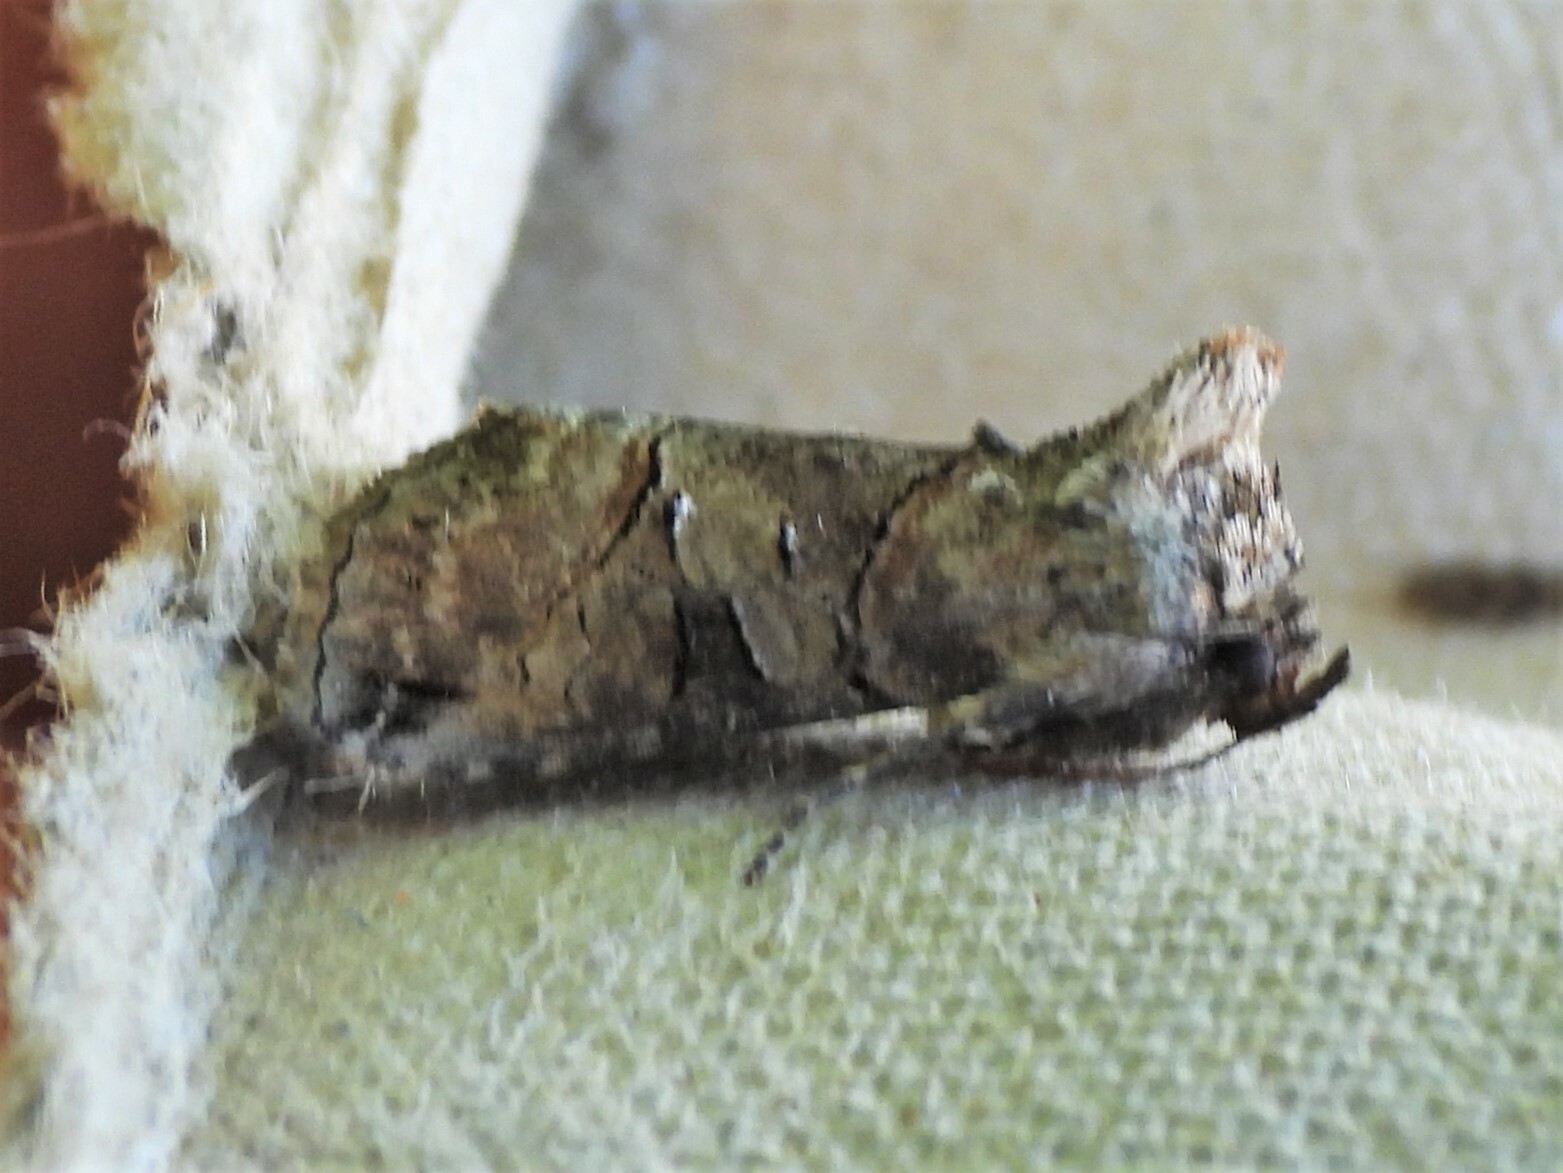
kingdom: Animalia
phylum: Arthropoda
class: Insecta
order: Lepidoptera
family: Noctuidae
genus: Abrostola
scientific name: Abrostola urentis
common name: Spectacled nettle moth
